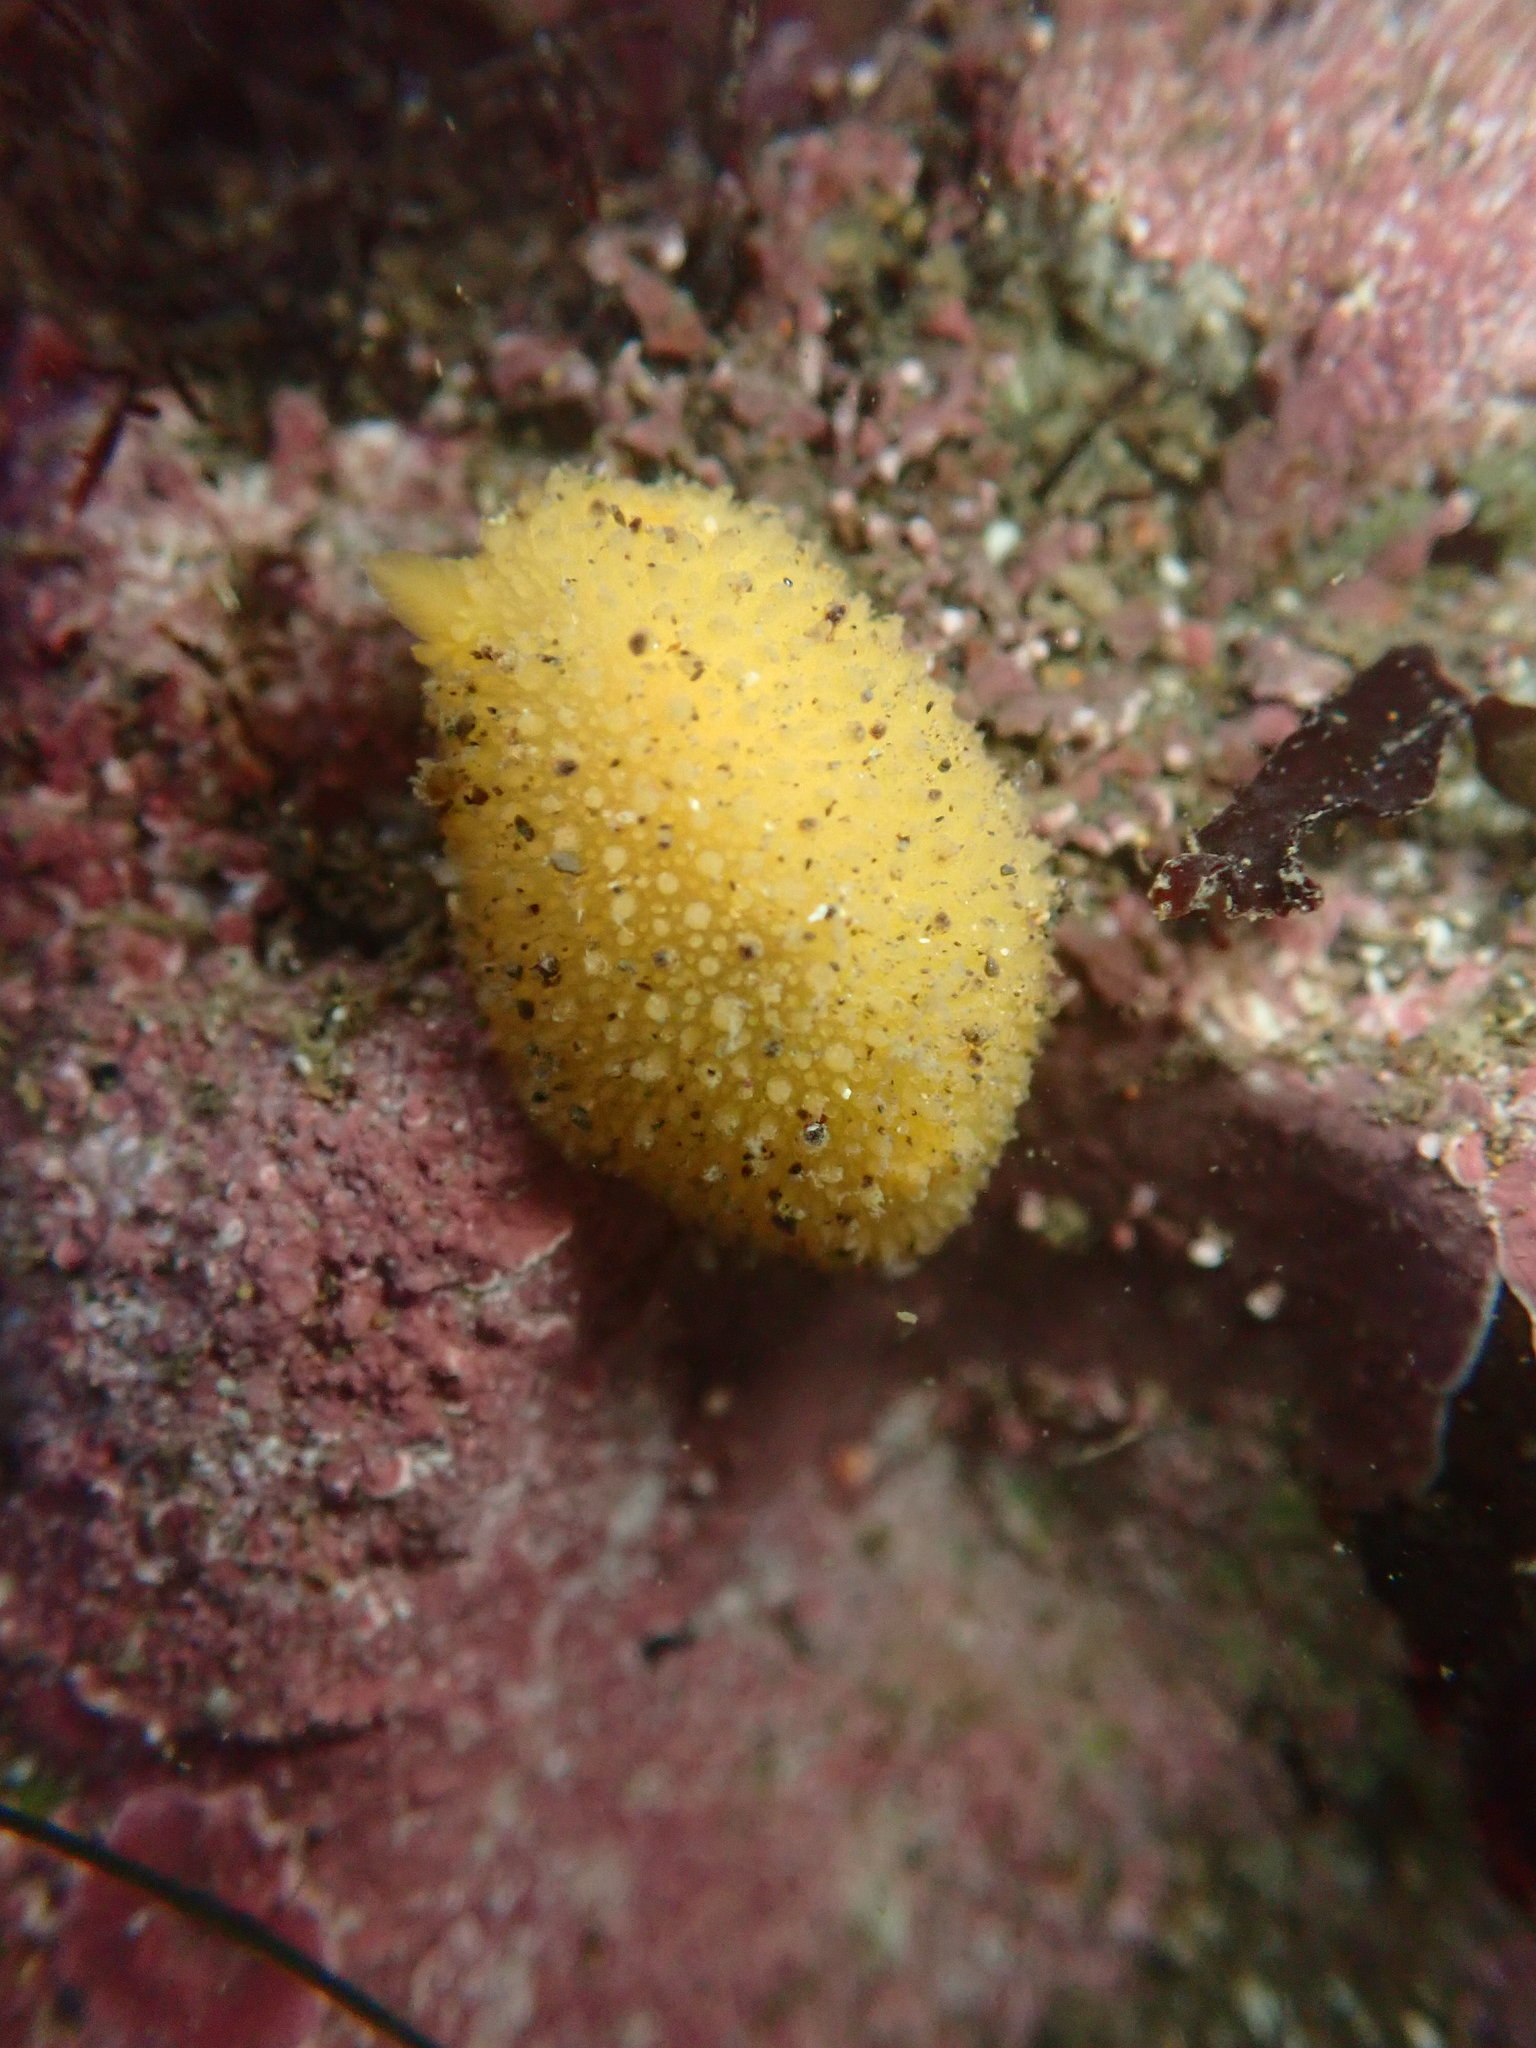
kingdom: Animalia
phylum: Mollusca
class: Gastropoda
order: Nudibranchia
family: Dorididae
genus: Doris
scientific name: Doris montereyensis
